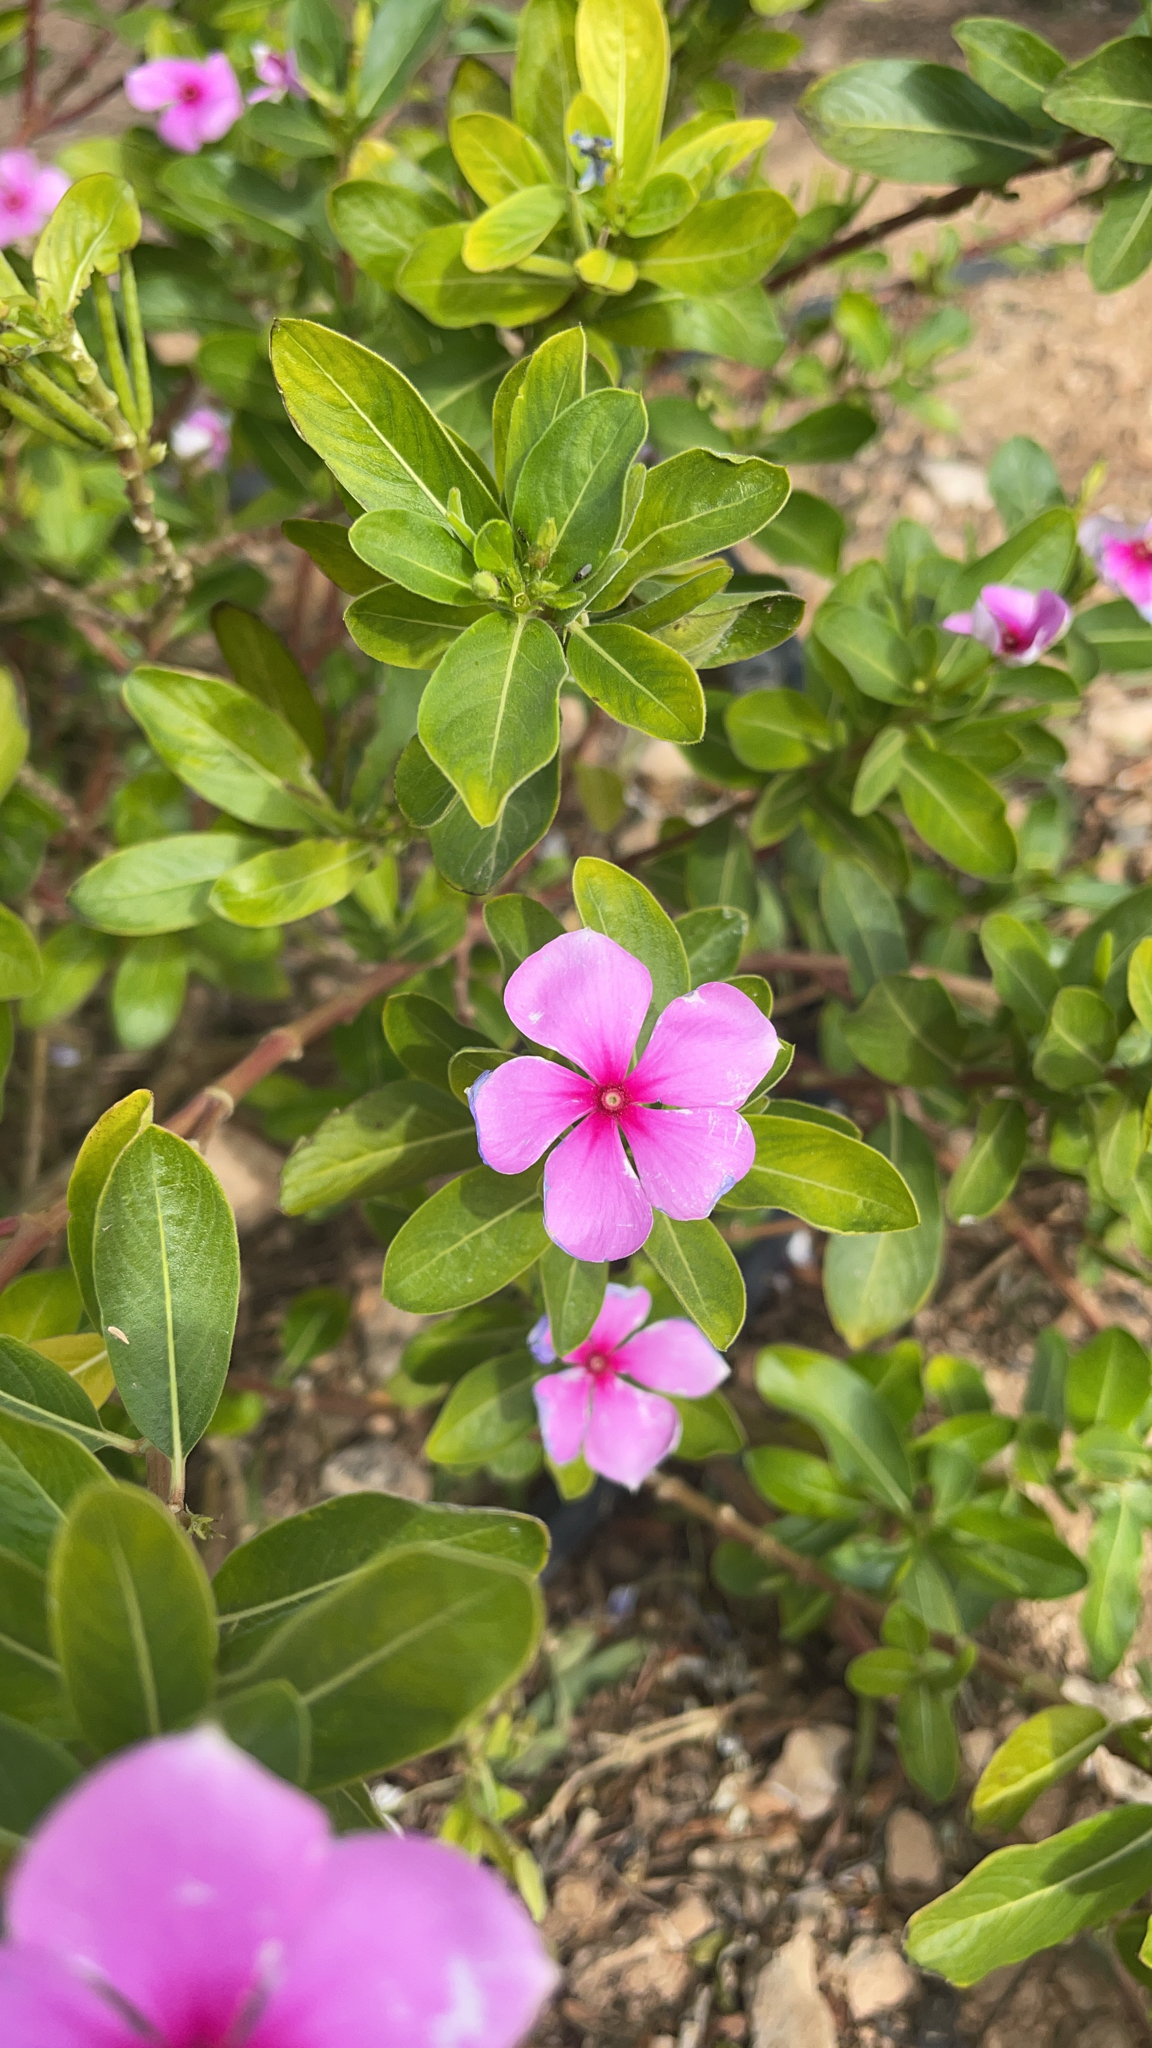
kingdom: Plantae
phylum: Tracheophyta
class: Magnoliopsida
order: Gentianales
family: Apocynaceae
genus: Catharanthus
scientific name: Catharanthus roseus
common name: Madagascar periwinkle
